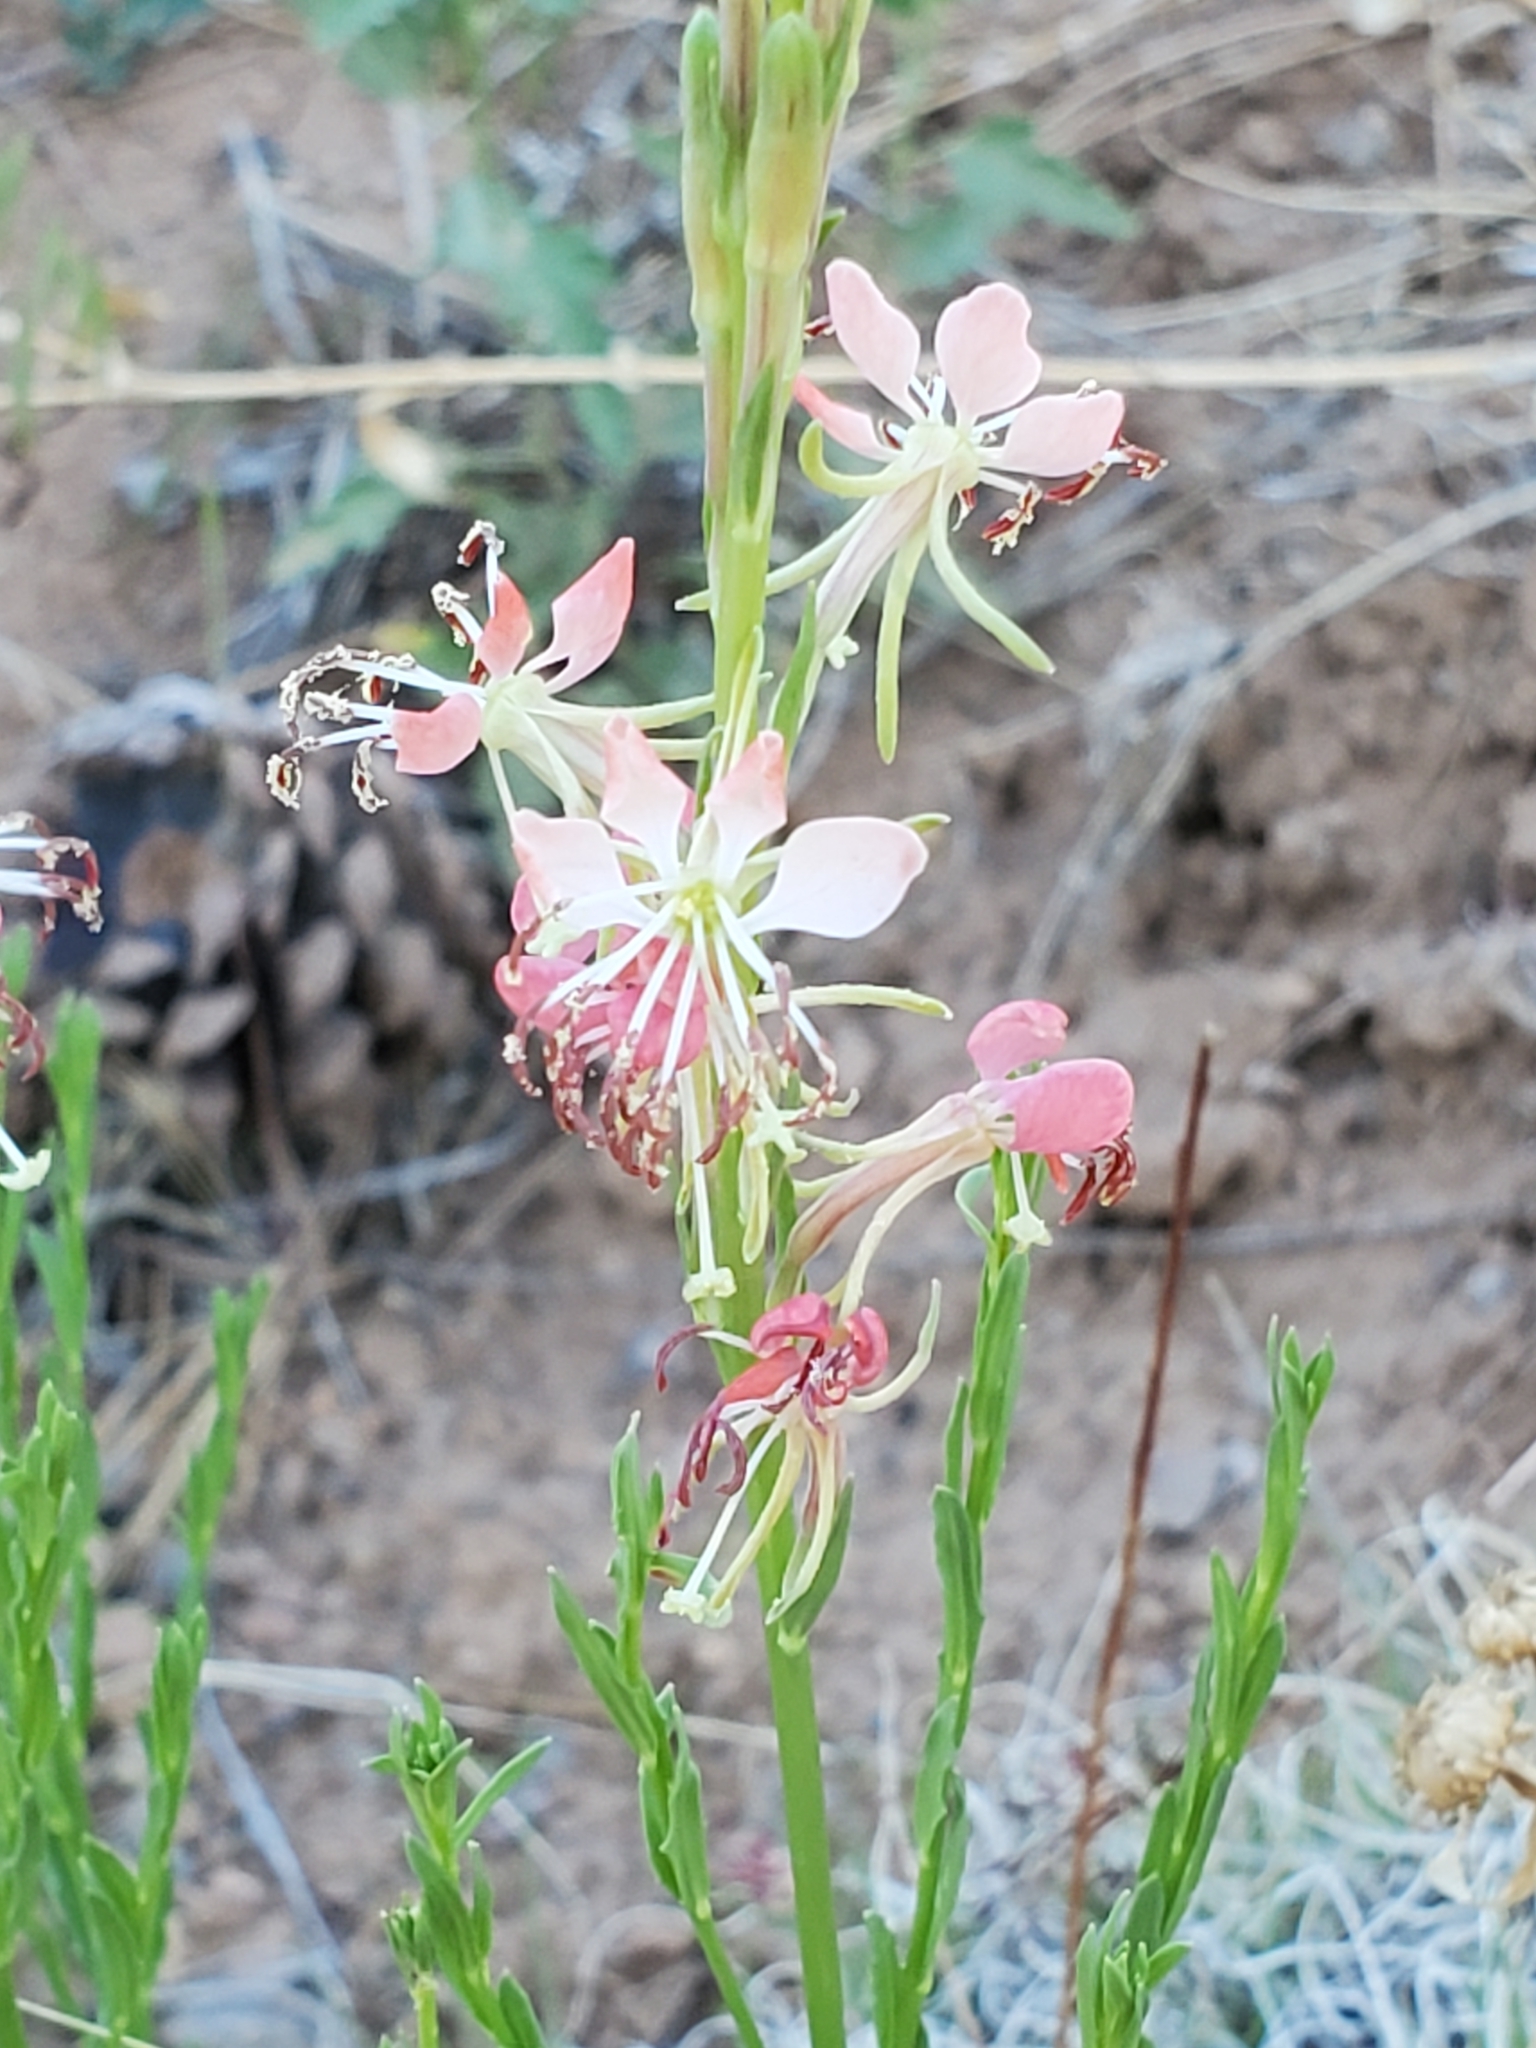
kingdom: Plantae
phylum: Tracheophyta
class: Magnoliopsida
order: Myrtales
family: Onagraceae
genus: Oenothera
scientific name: Oenothera suffrutescens
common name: Scarlet beeblossom
